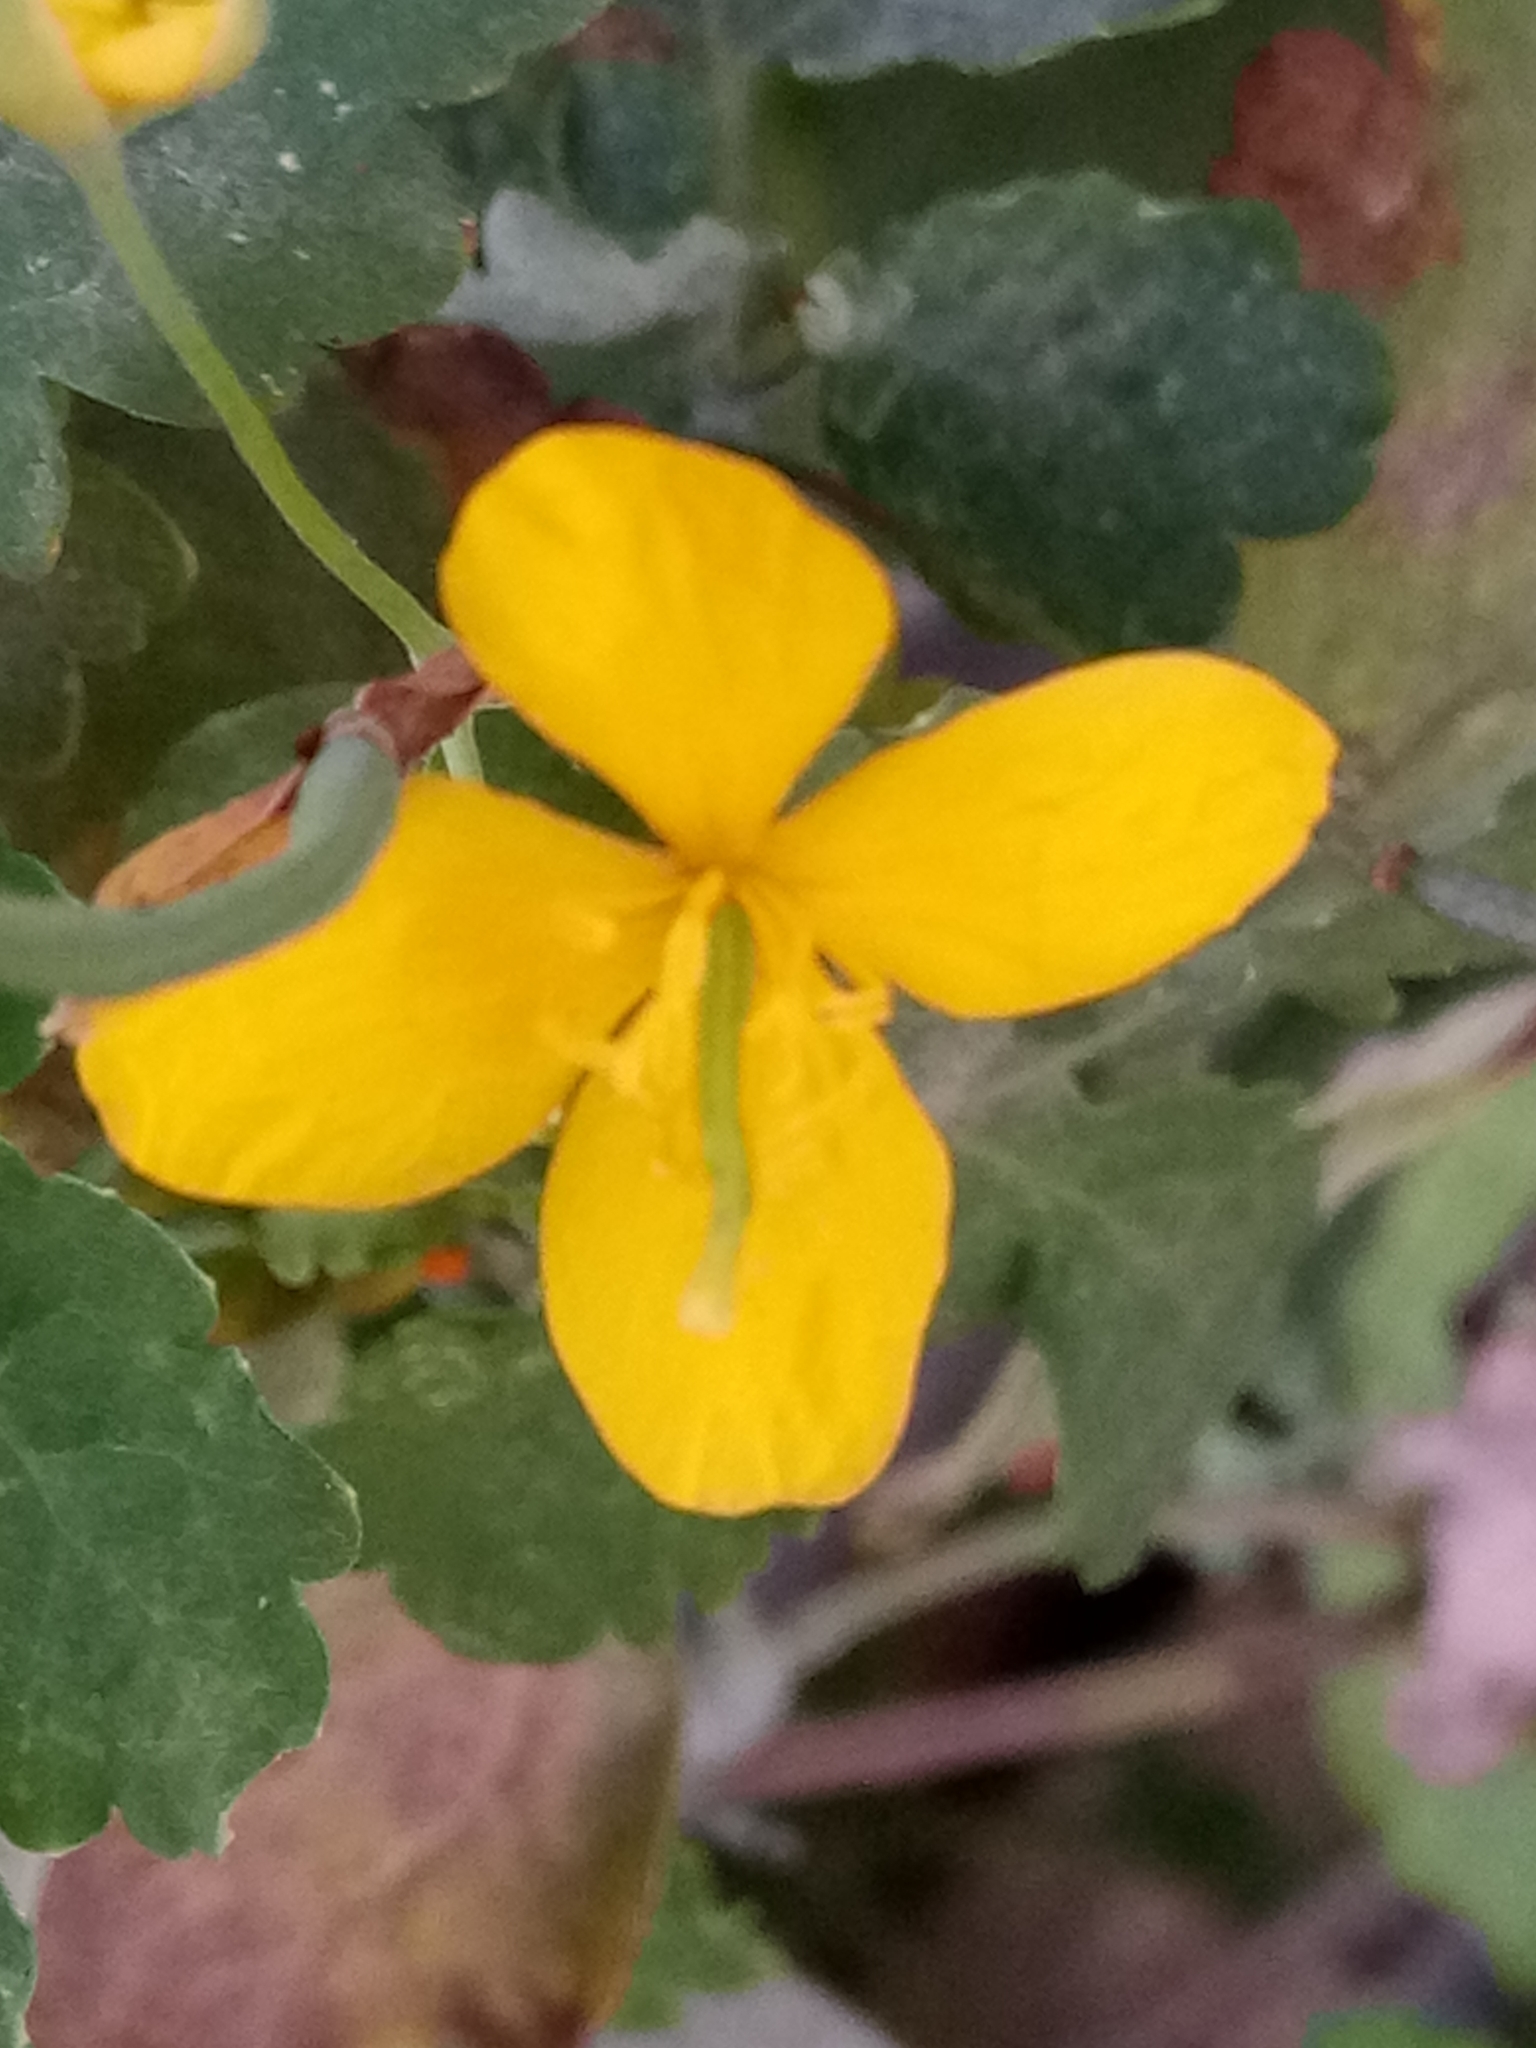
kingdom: Plantae
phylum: Tracheophyta
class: Magnoliopsida
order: Ranunculales
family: Papaveraceae
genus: Chelidonium
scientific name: Chelidonium majus
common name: Greater celandine
